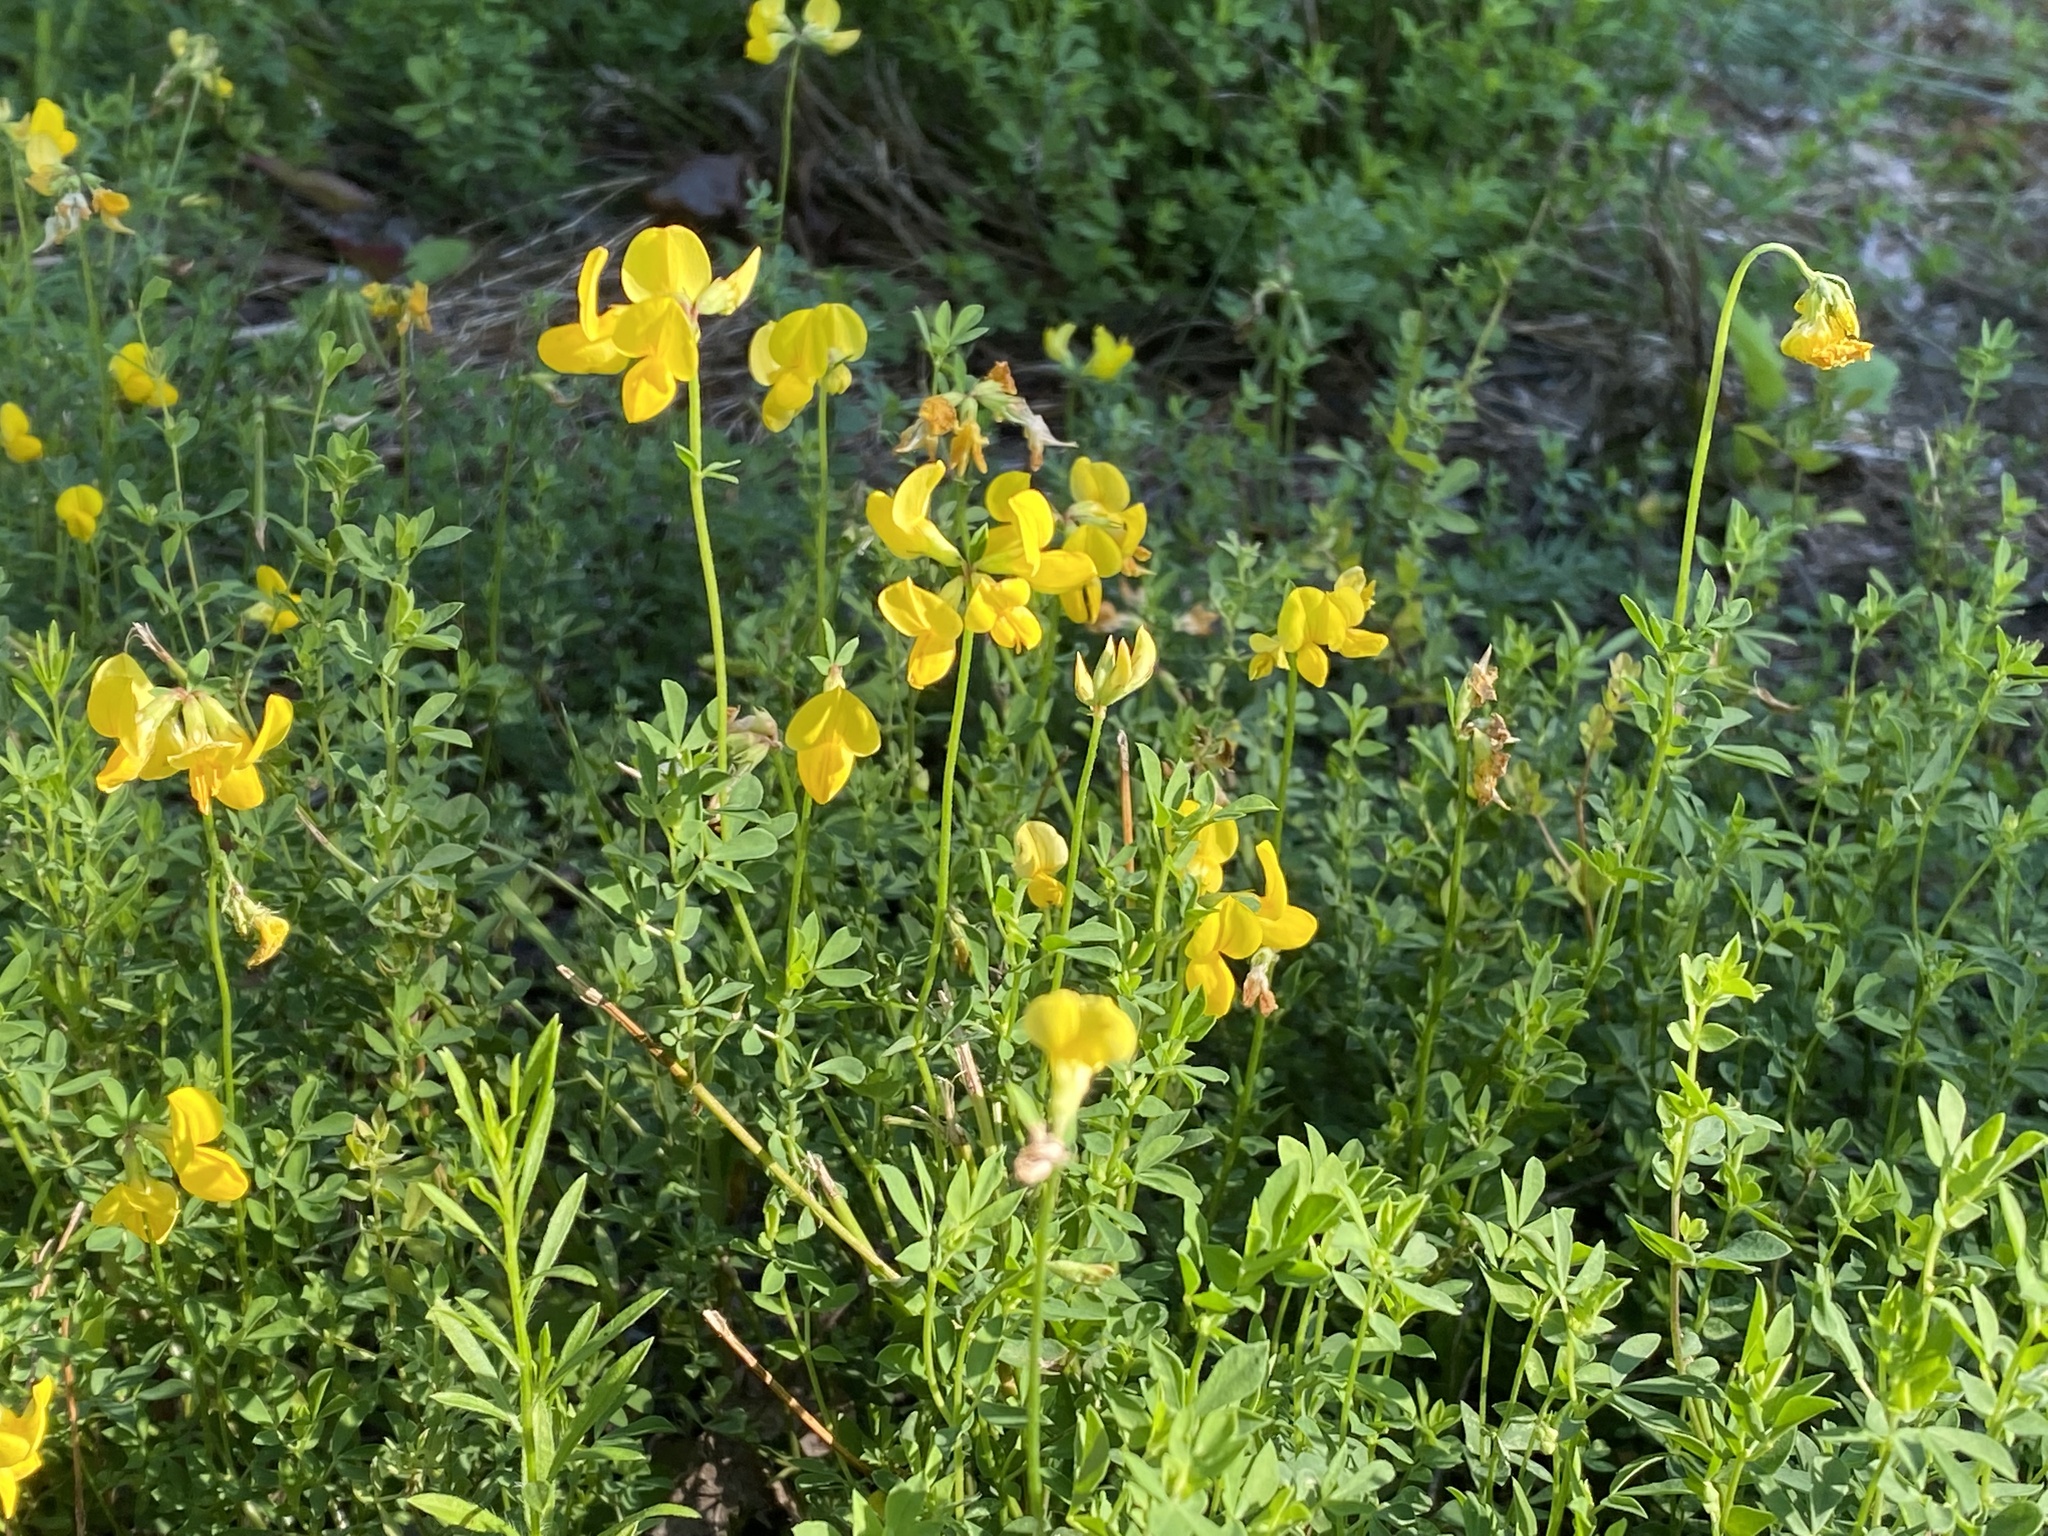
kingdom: Plantae
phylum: Tracheophyta
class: Magnoliopsida
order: Fabales
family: Fabaceae
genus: Lotus
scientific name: Lotus corniculatus
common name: Common bird's-foot-trefoil
